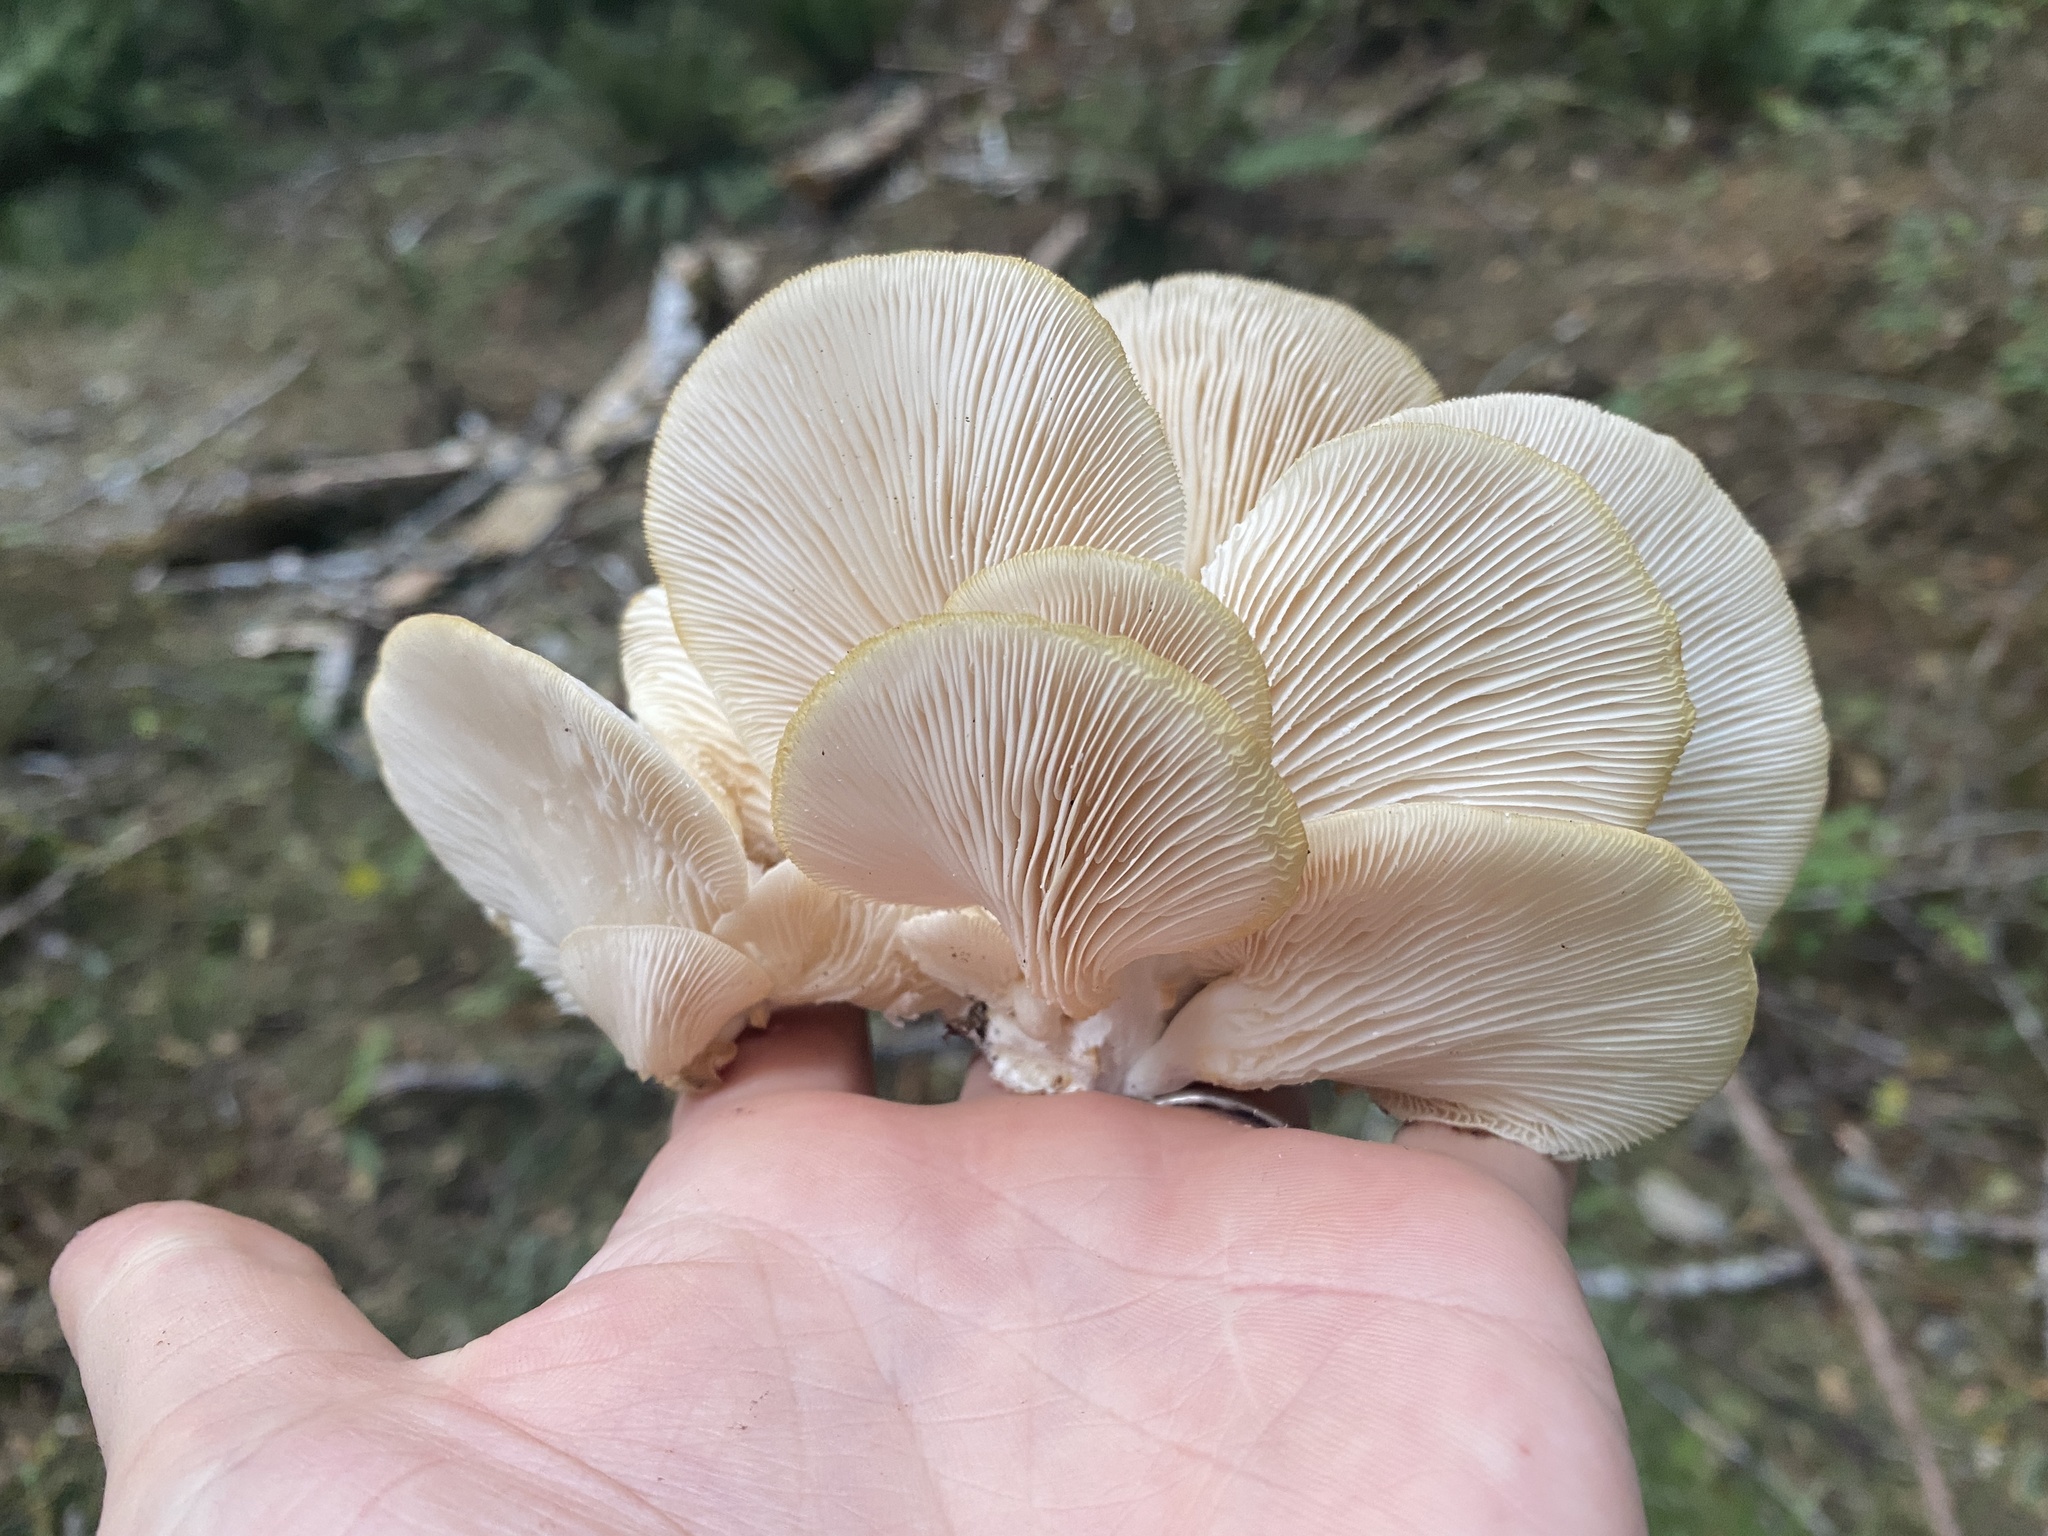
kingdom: Fungi
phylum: Basidiomycota
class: Agaricomycetes
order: Agaricales
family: Pleurotaceae
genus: Pleurotus
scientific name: Pleurotus populinus
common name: Aspen oyster mushroom
